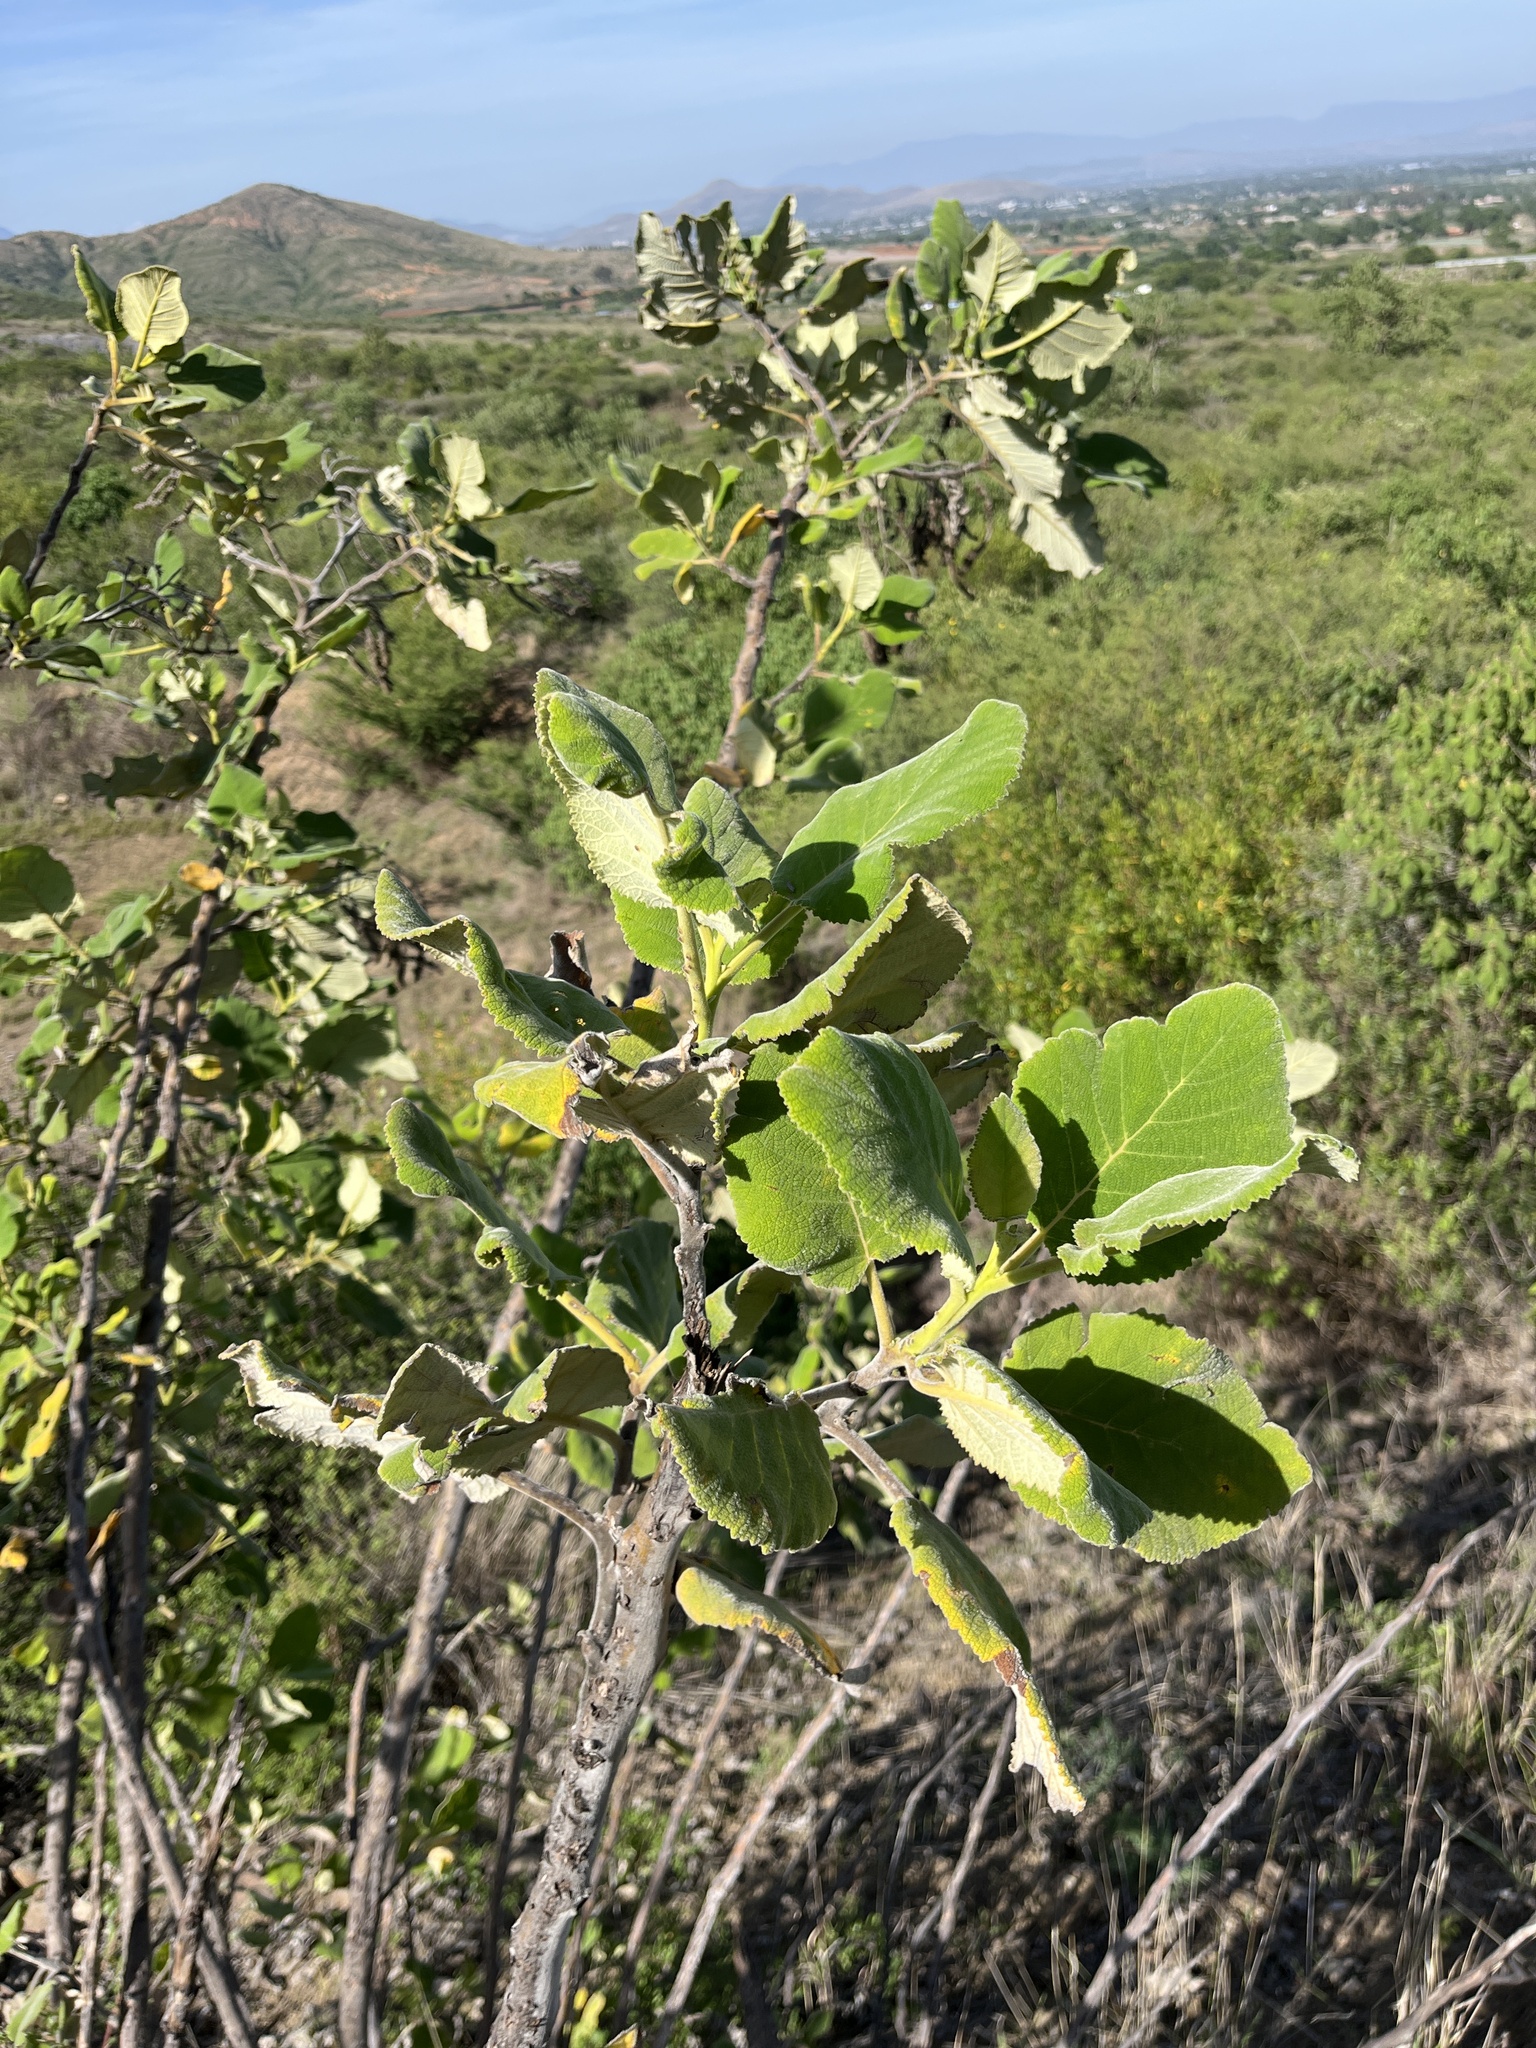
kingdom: Plantae
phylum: Tracheophyta
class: Magnoliopsida
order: Boraginales
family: Namaceae
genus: Wigandia
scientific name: Wigandia urens
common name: Caracus wigandia
